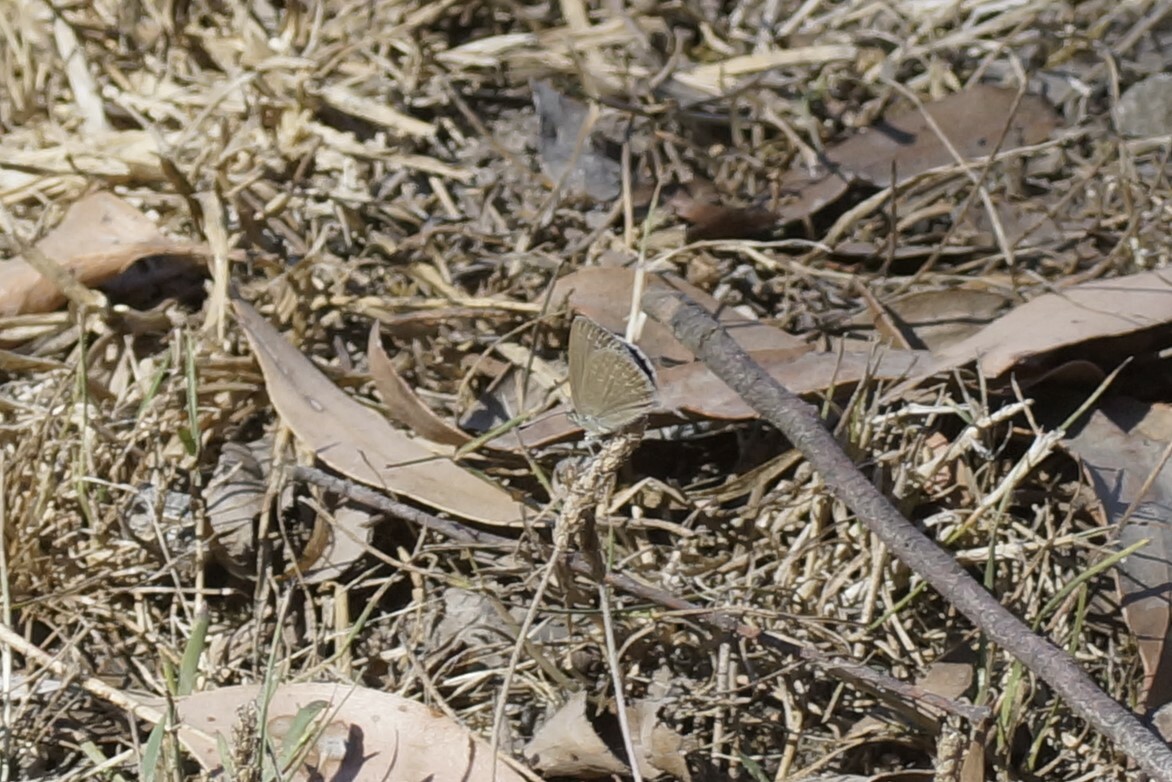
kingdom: Animalia
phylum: Arthropoda
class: Insecta
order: Lepidoptera
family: Lycaenidae
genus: Zizina
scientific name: Zizina otis
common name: Lesser grass blue
